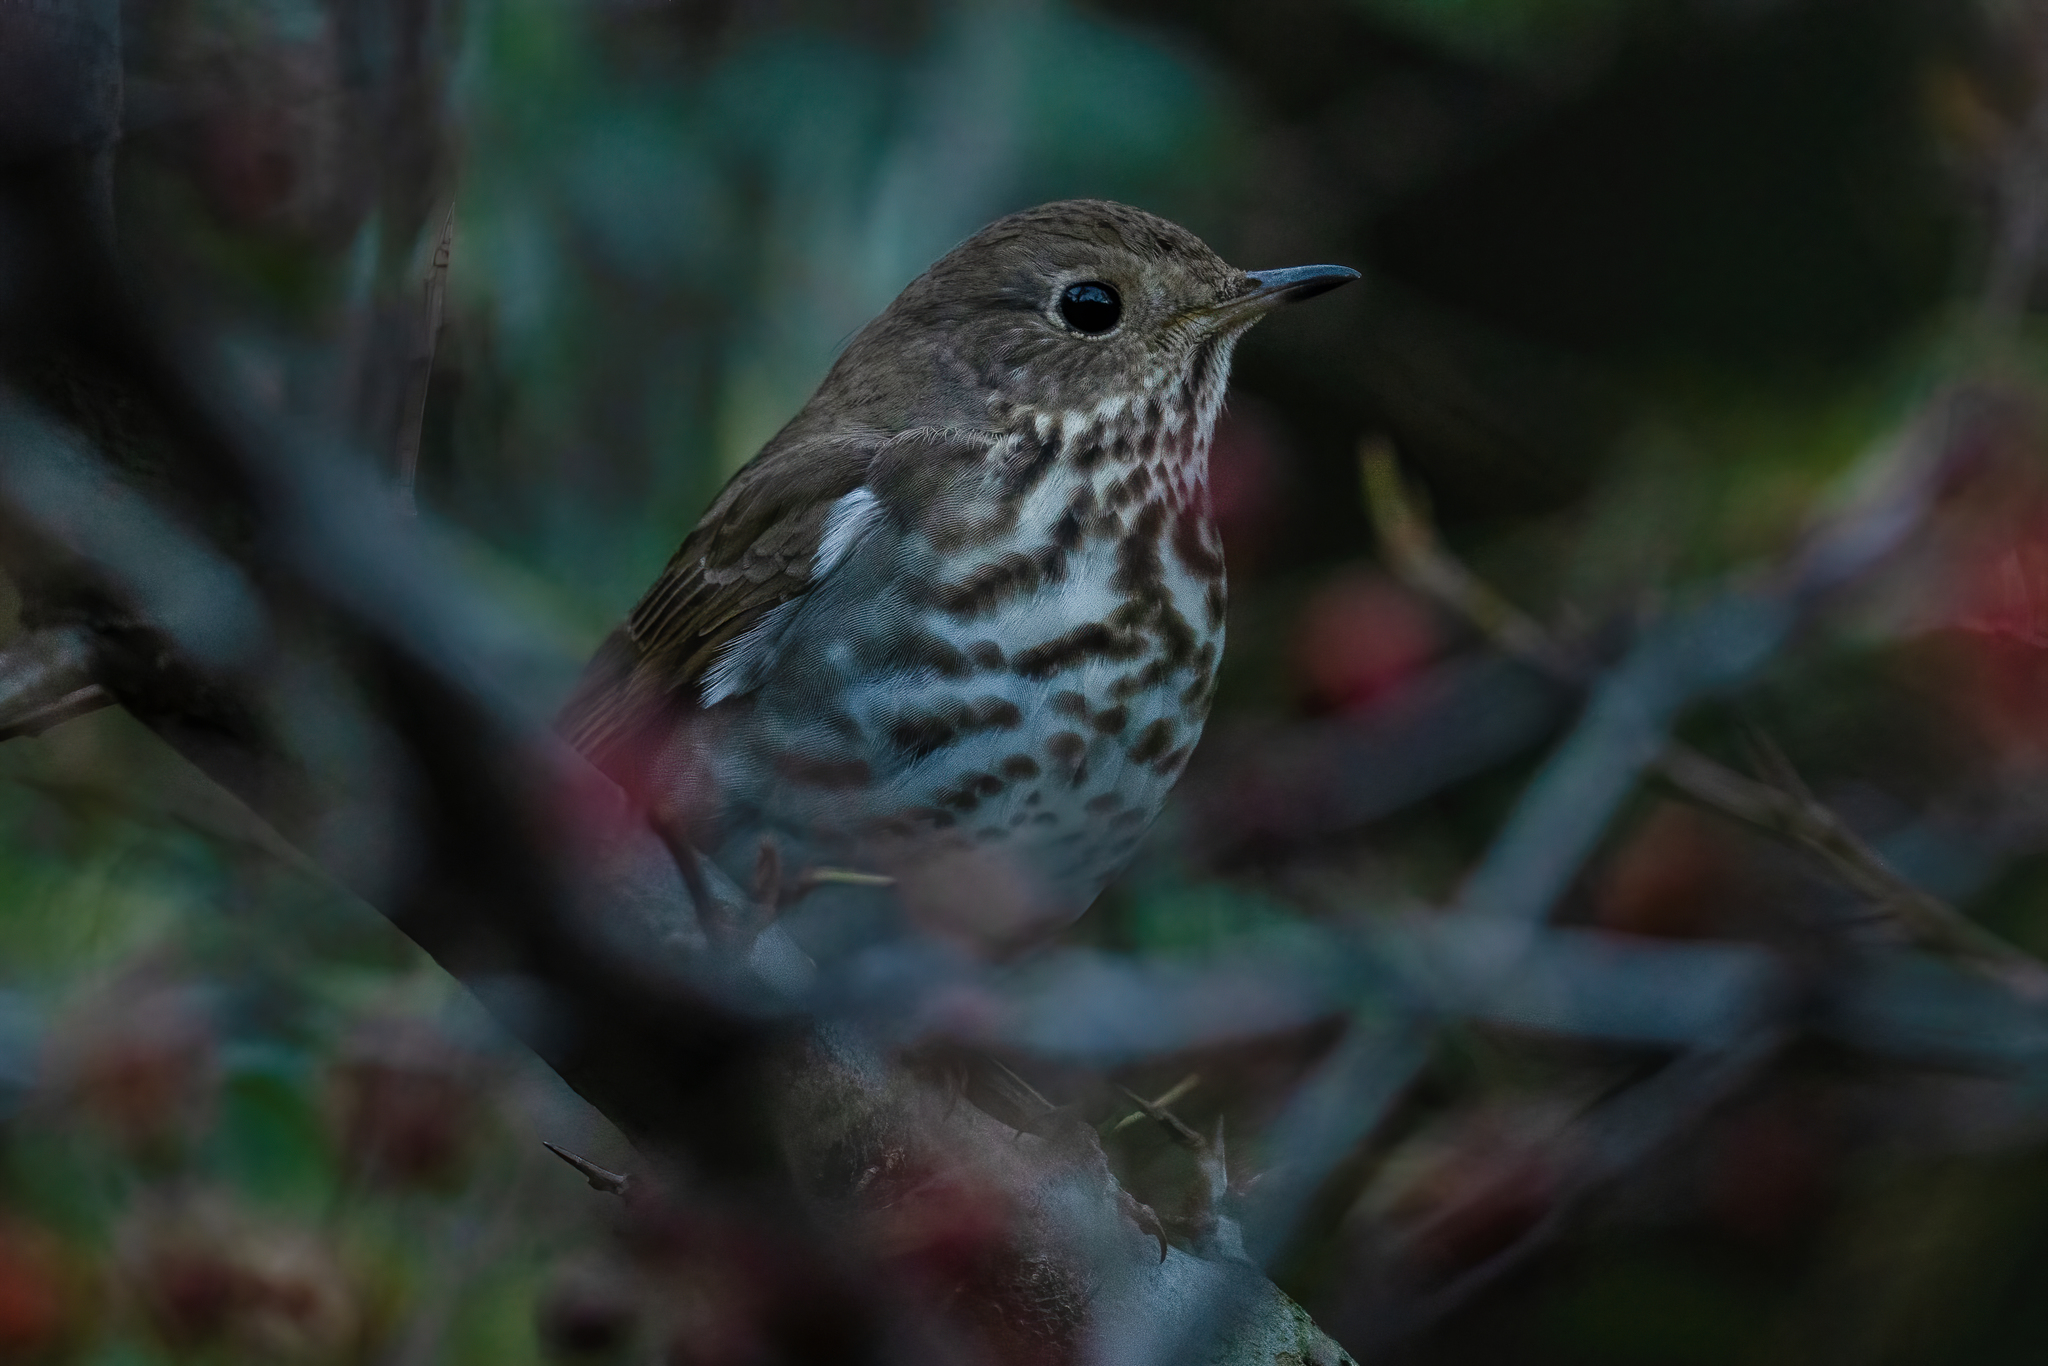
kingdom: Animalia
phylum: Chordata
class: Aves
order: Passeriformes
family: Turdidae
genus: Catharus
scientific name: Catharus guttatus
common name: Hermit thrush
